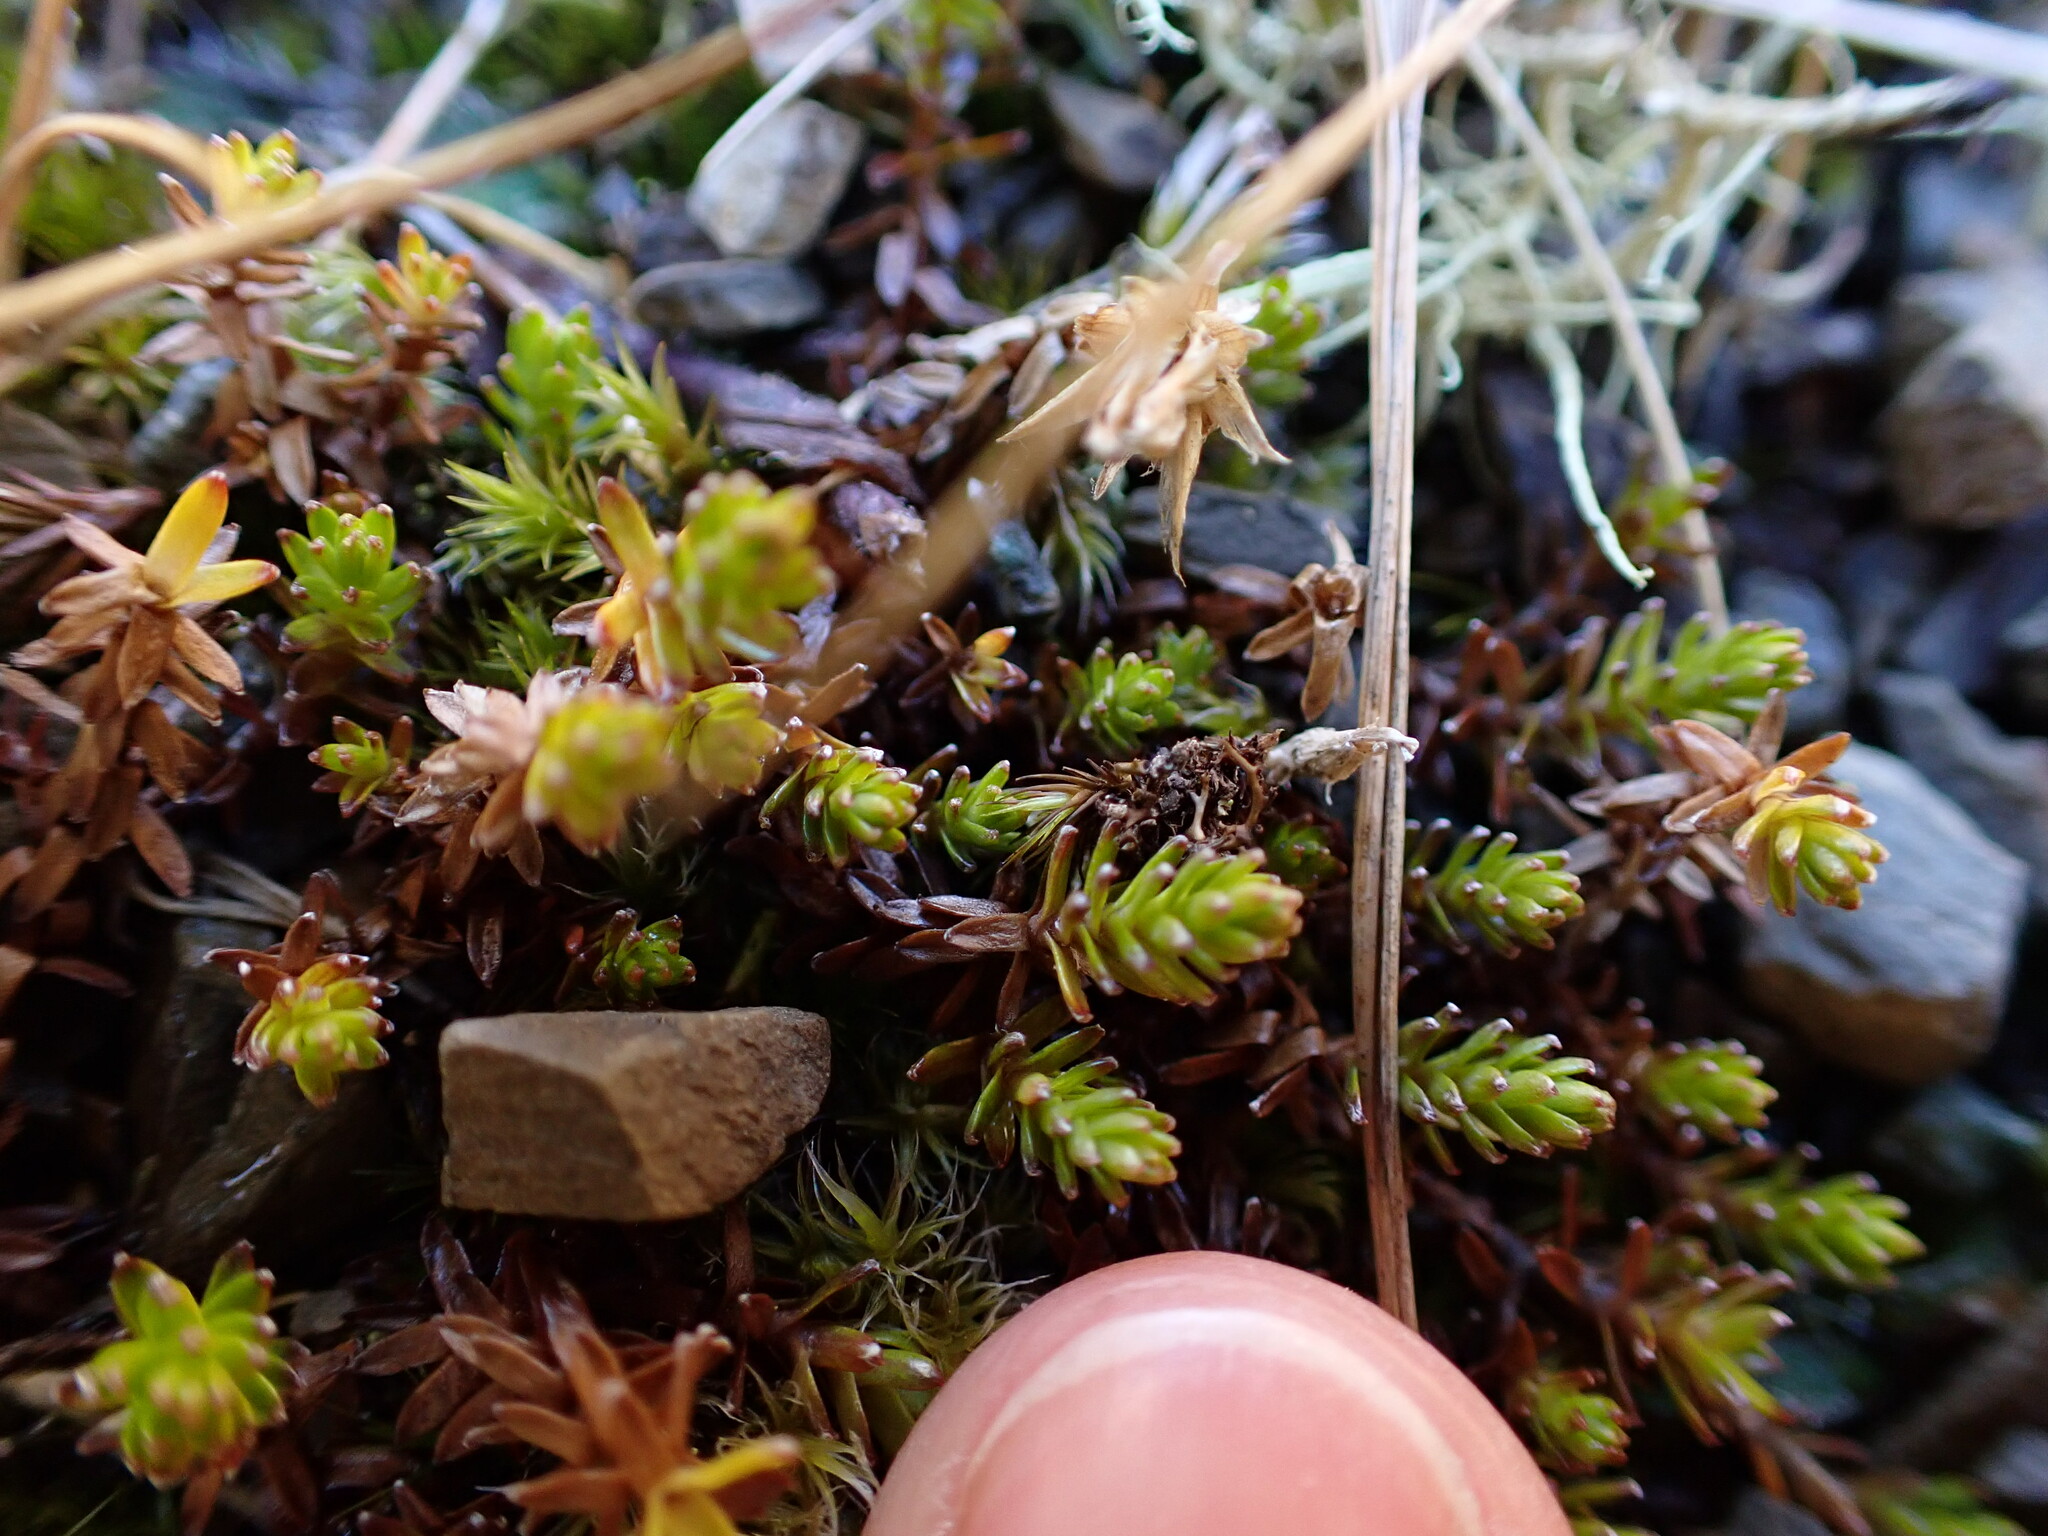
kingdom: Plantae
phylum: Tracheophyta
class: Magnoliopsida
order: Asterales
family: Asteraceae
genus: Raoulia
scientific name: Raoulia glabra
